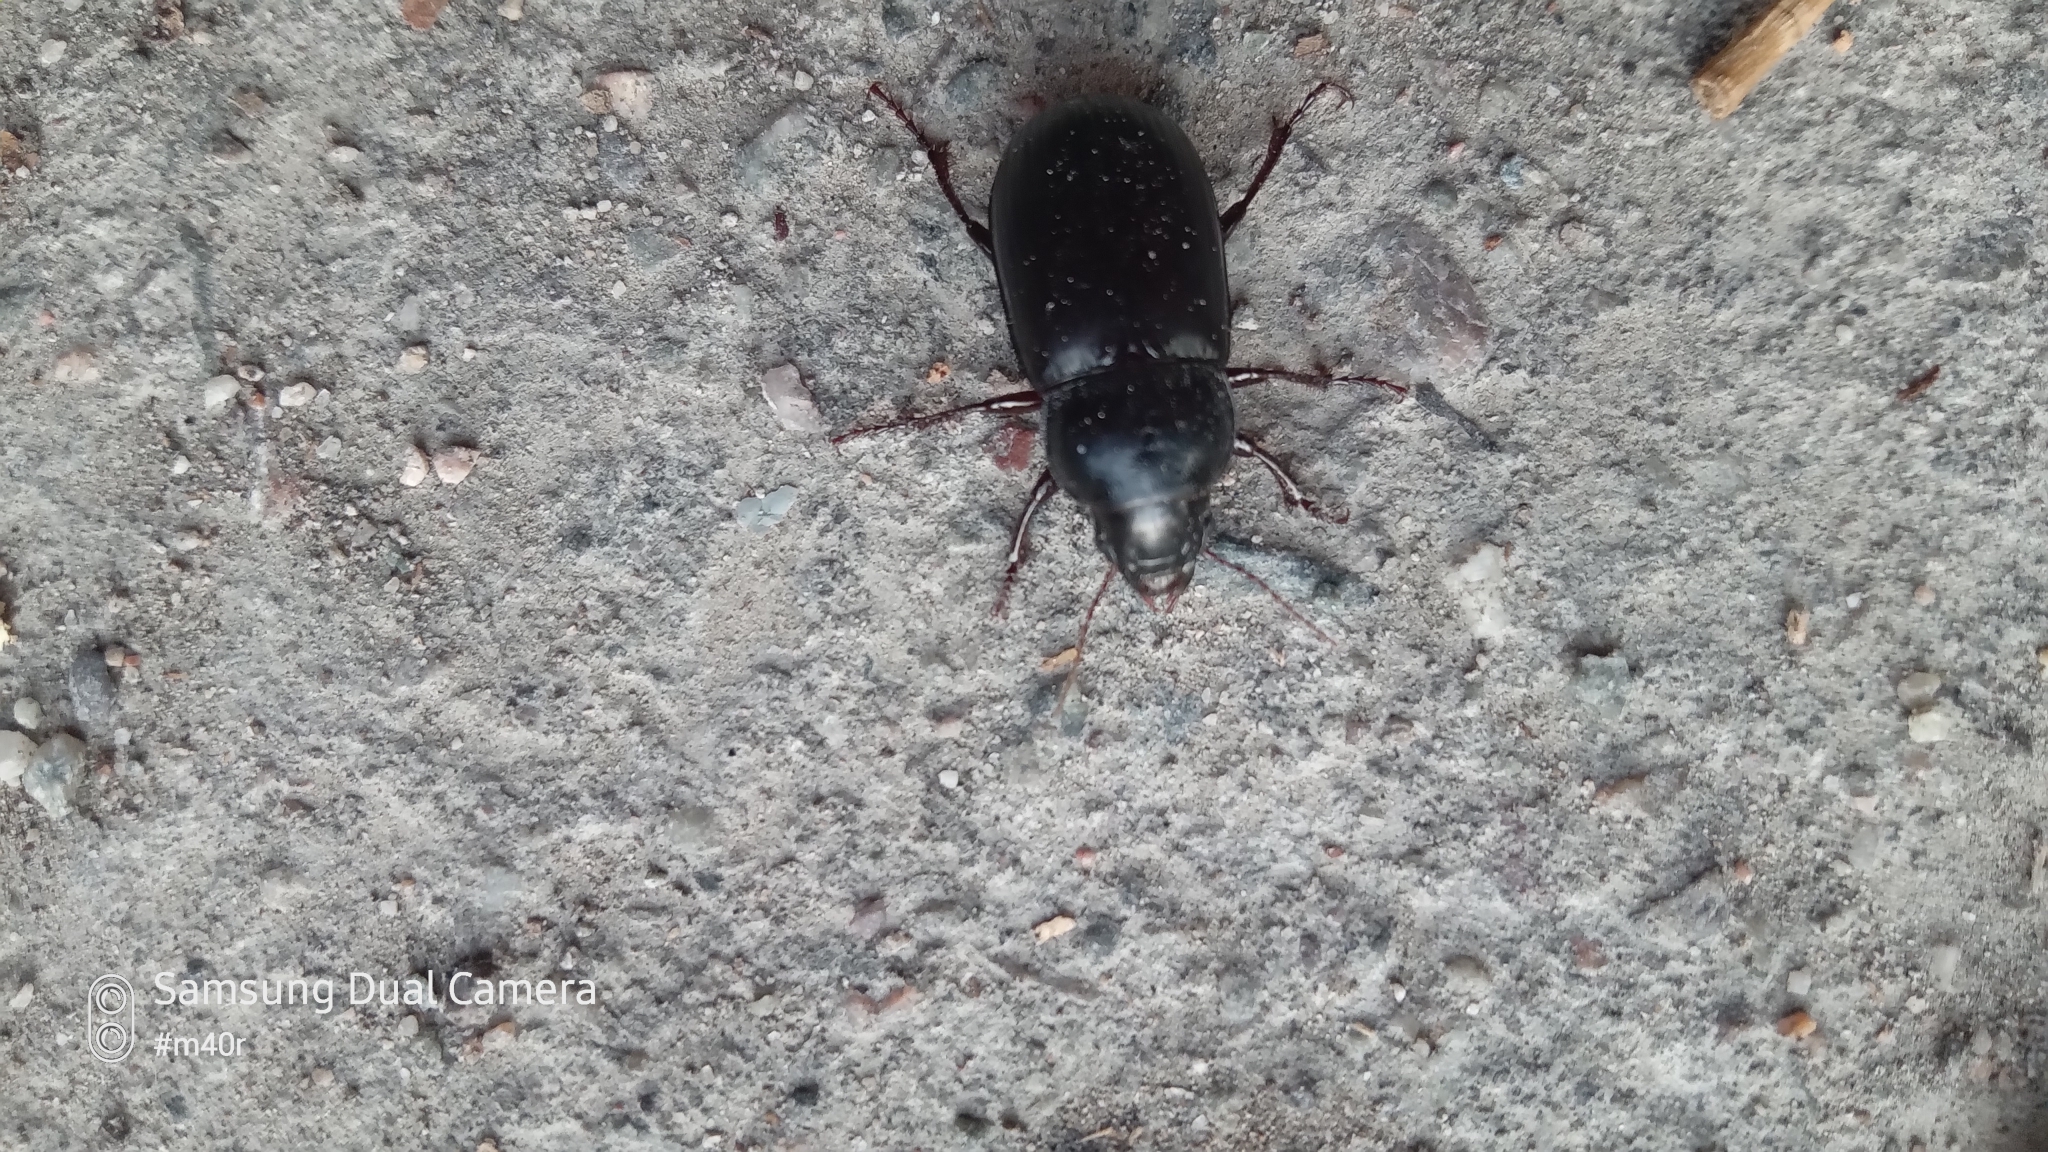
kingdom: Animalia
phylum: Arthropoda
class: Insecta
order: Coleoptera
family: Carabidae
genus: Zabrus
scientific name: Zabrus morio
